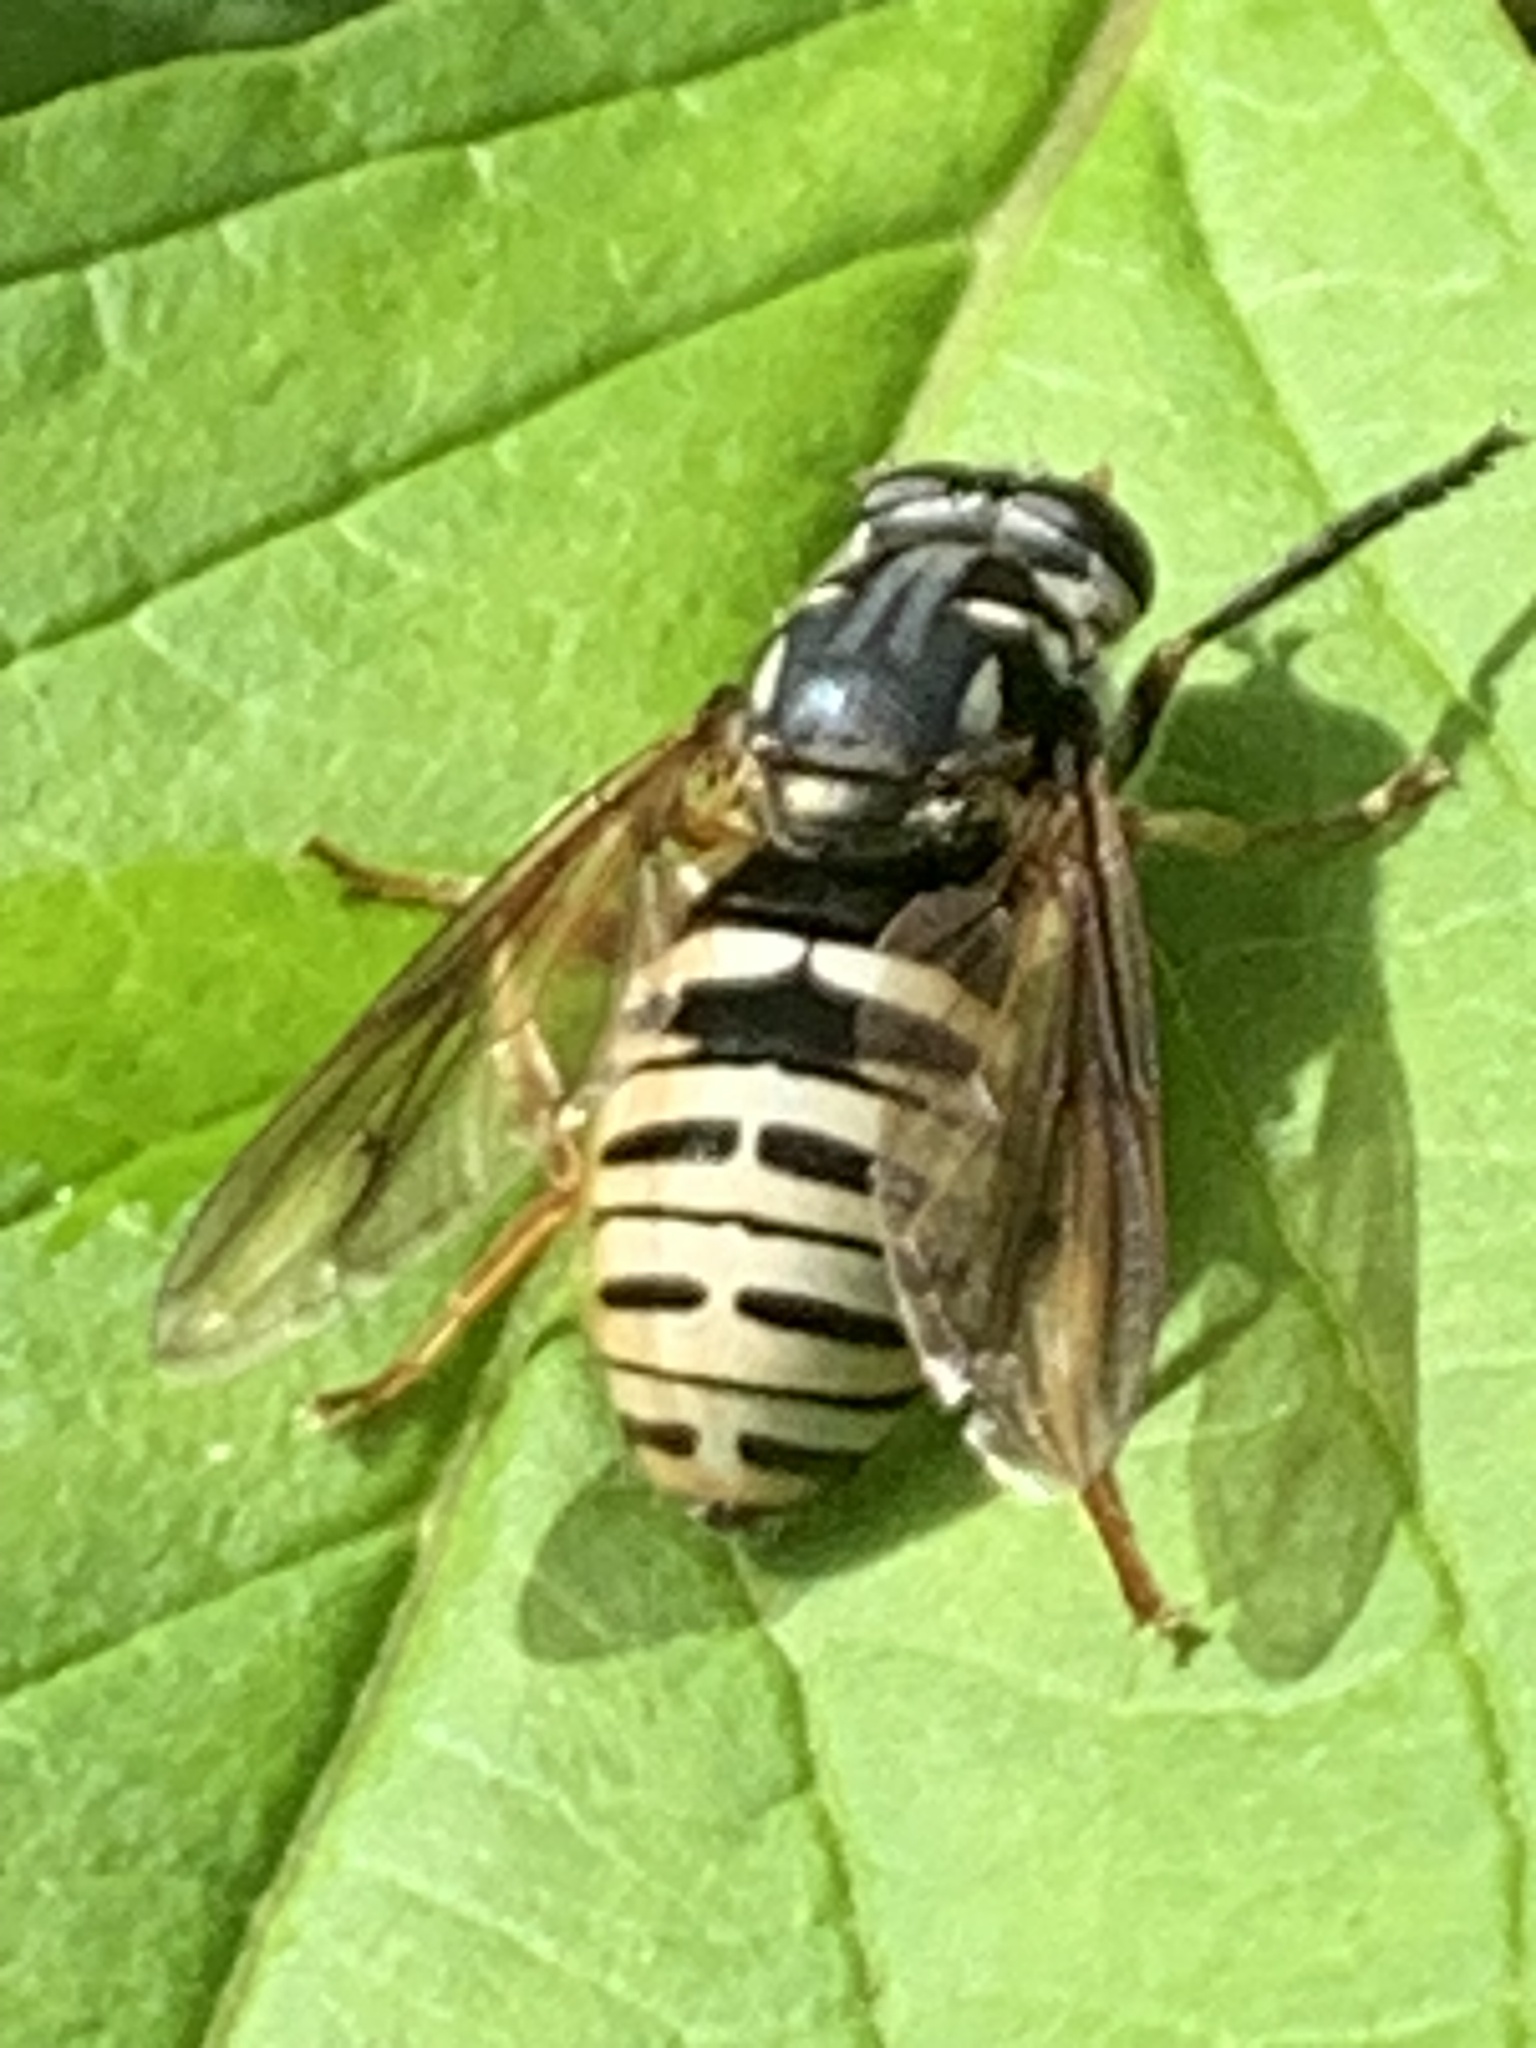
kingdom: Animalia
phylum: Arthropoda
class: Insecta
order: Diptera
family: Syrphidae
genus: Temnostoma
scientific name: Temnostoma excentricum
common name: Black-spotted falsehorn
